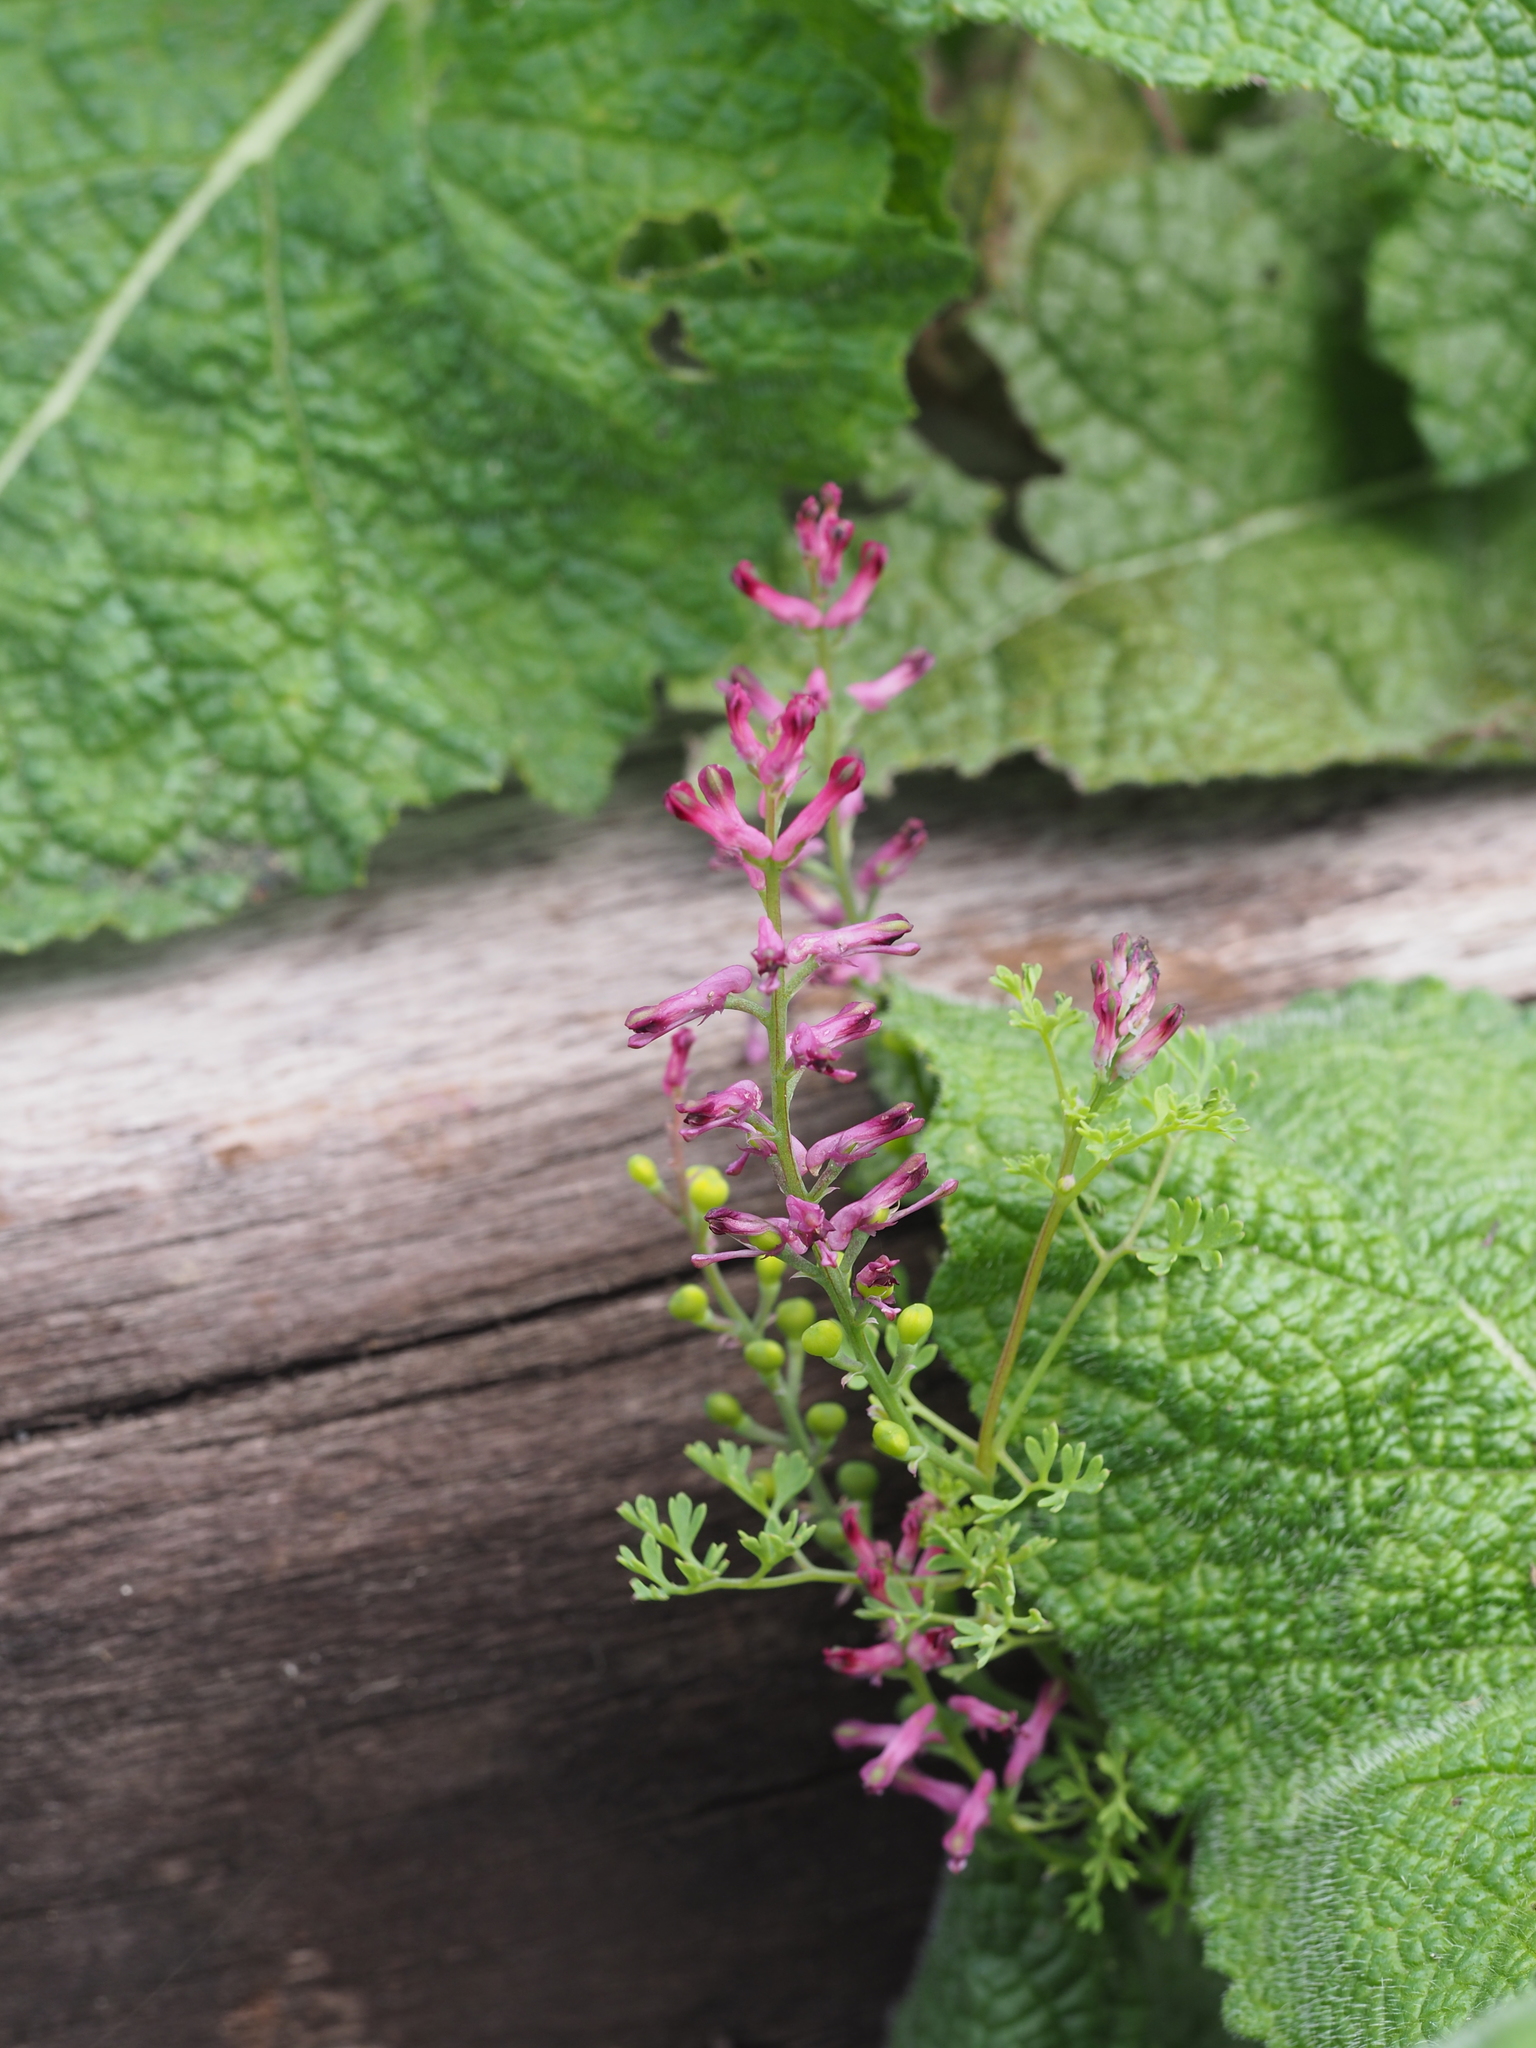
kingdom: Plantae
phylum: Tracheophyta
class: Magnoliopsida
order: Ranunculales
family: Papaveraceae
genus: Fumaria
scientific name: Fumaria officinalis
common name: Common fumitory
